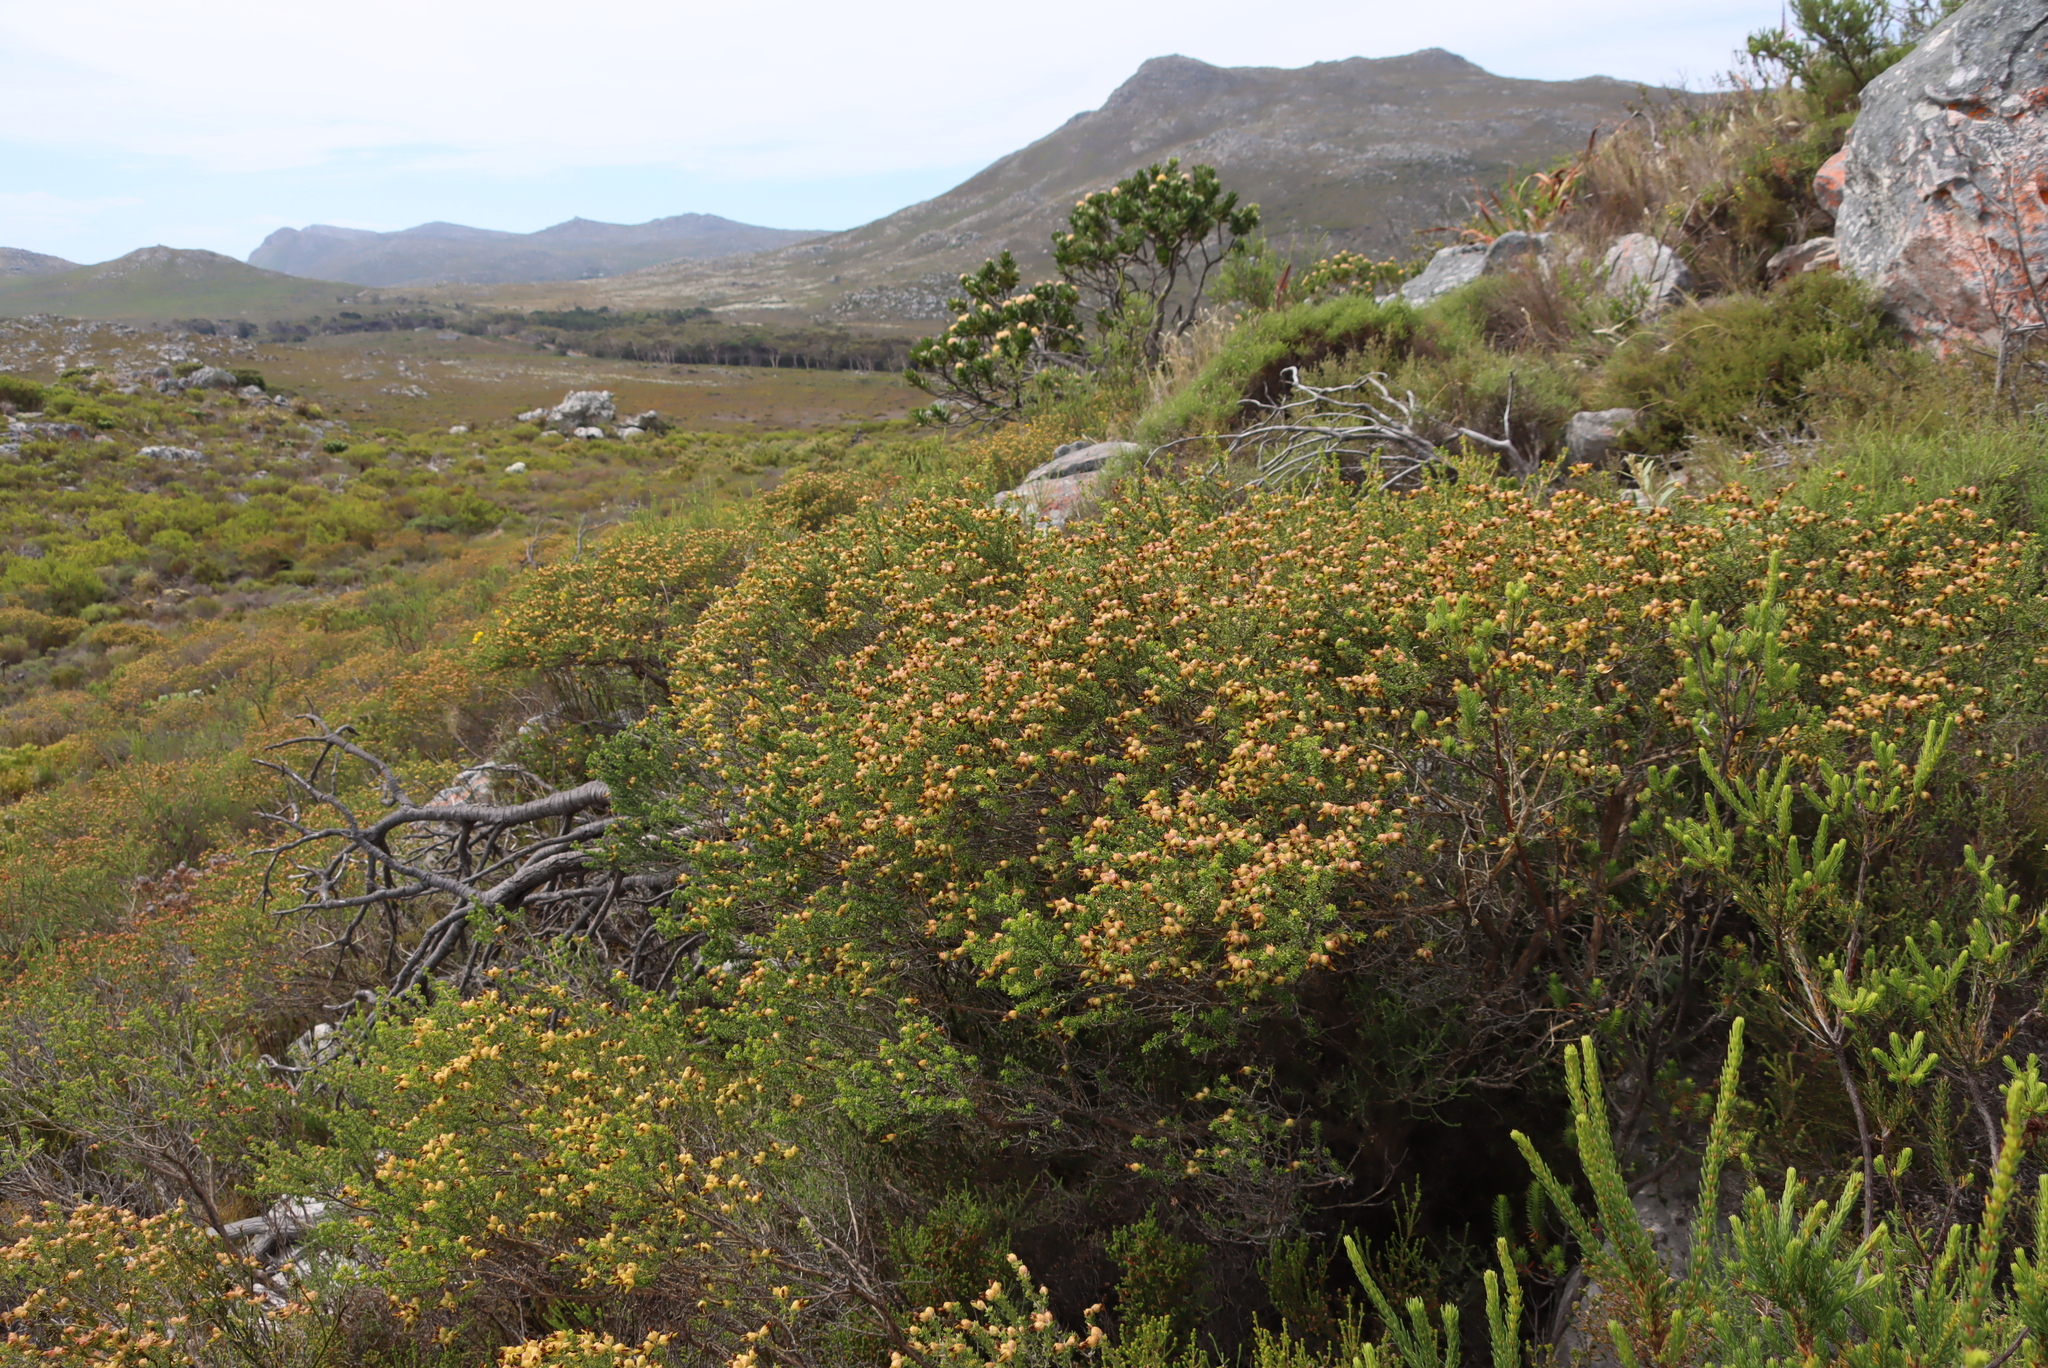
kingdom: Plantae
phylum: Tracheophyta
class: Magnoliopsida
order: Fabales
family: Fabaceae
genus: Aspalathus
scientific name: Aspalathus carnosa
